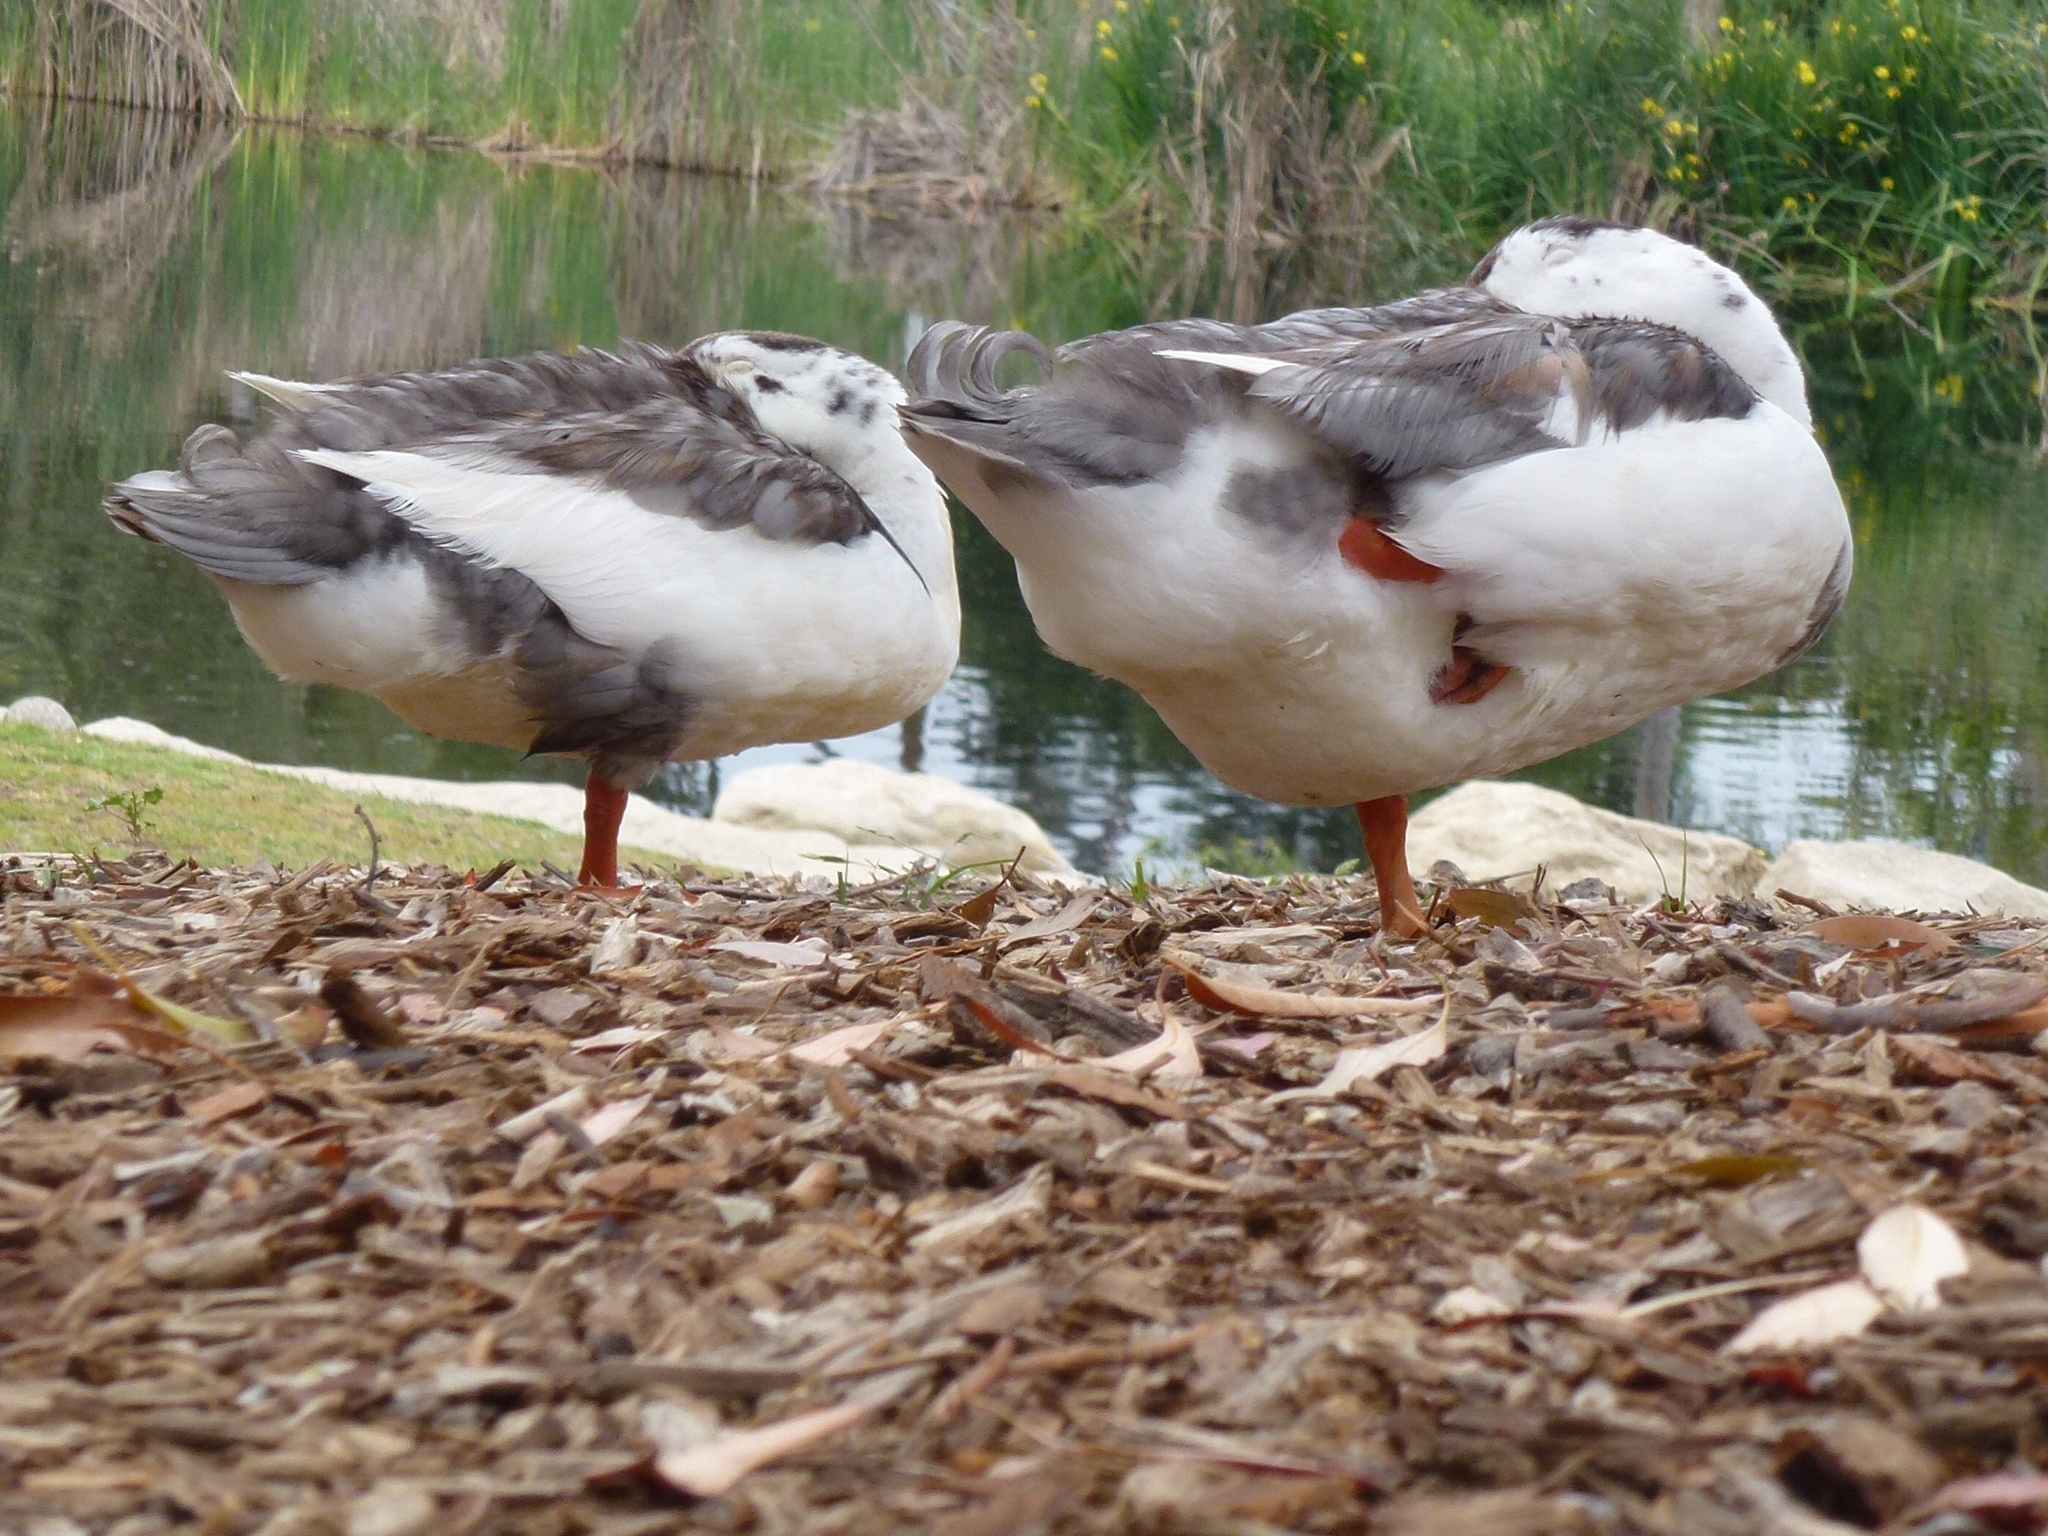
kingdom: Animalia
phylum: Chordata
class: Aves
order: Anseriformes
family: Anatidae
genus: Anas
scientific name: Anas platyrhynchos
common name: Mallard
